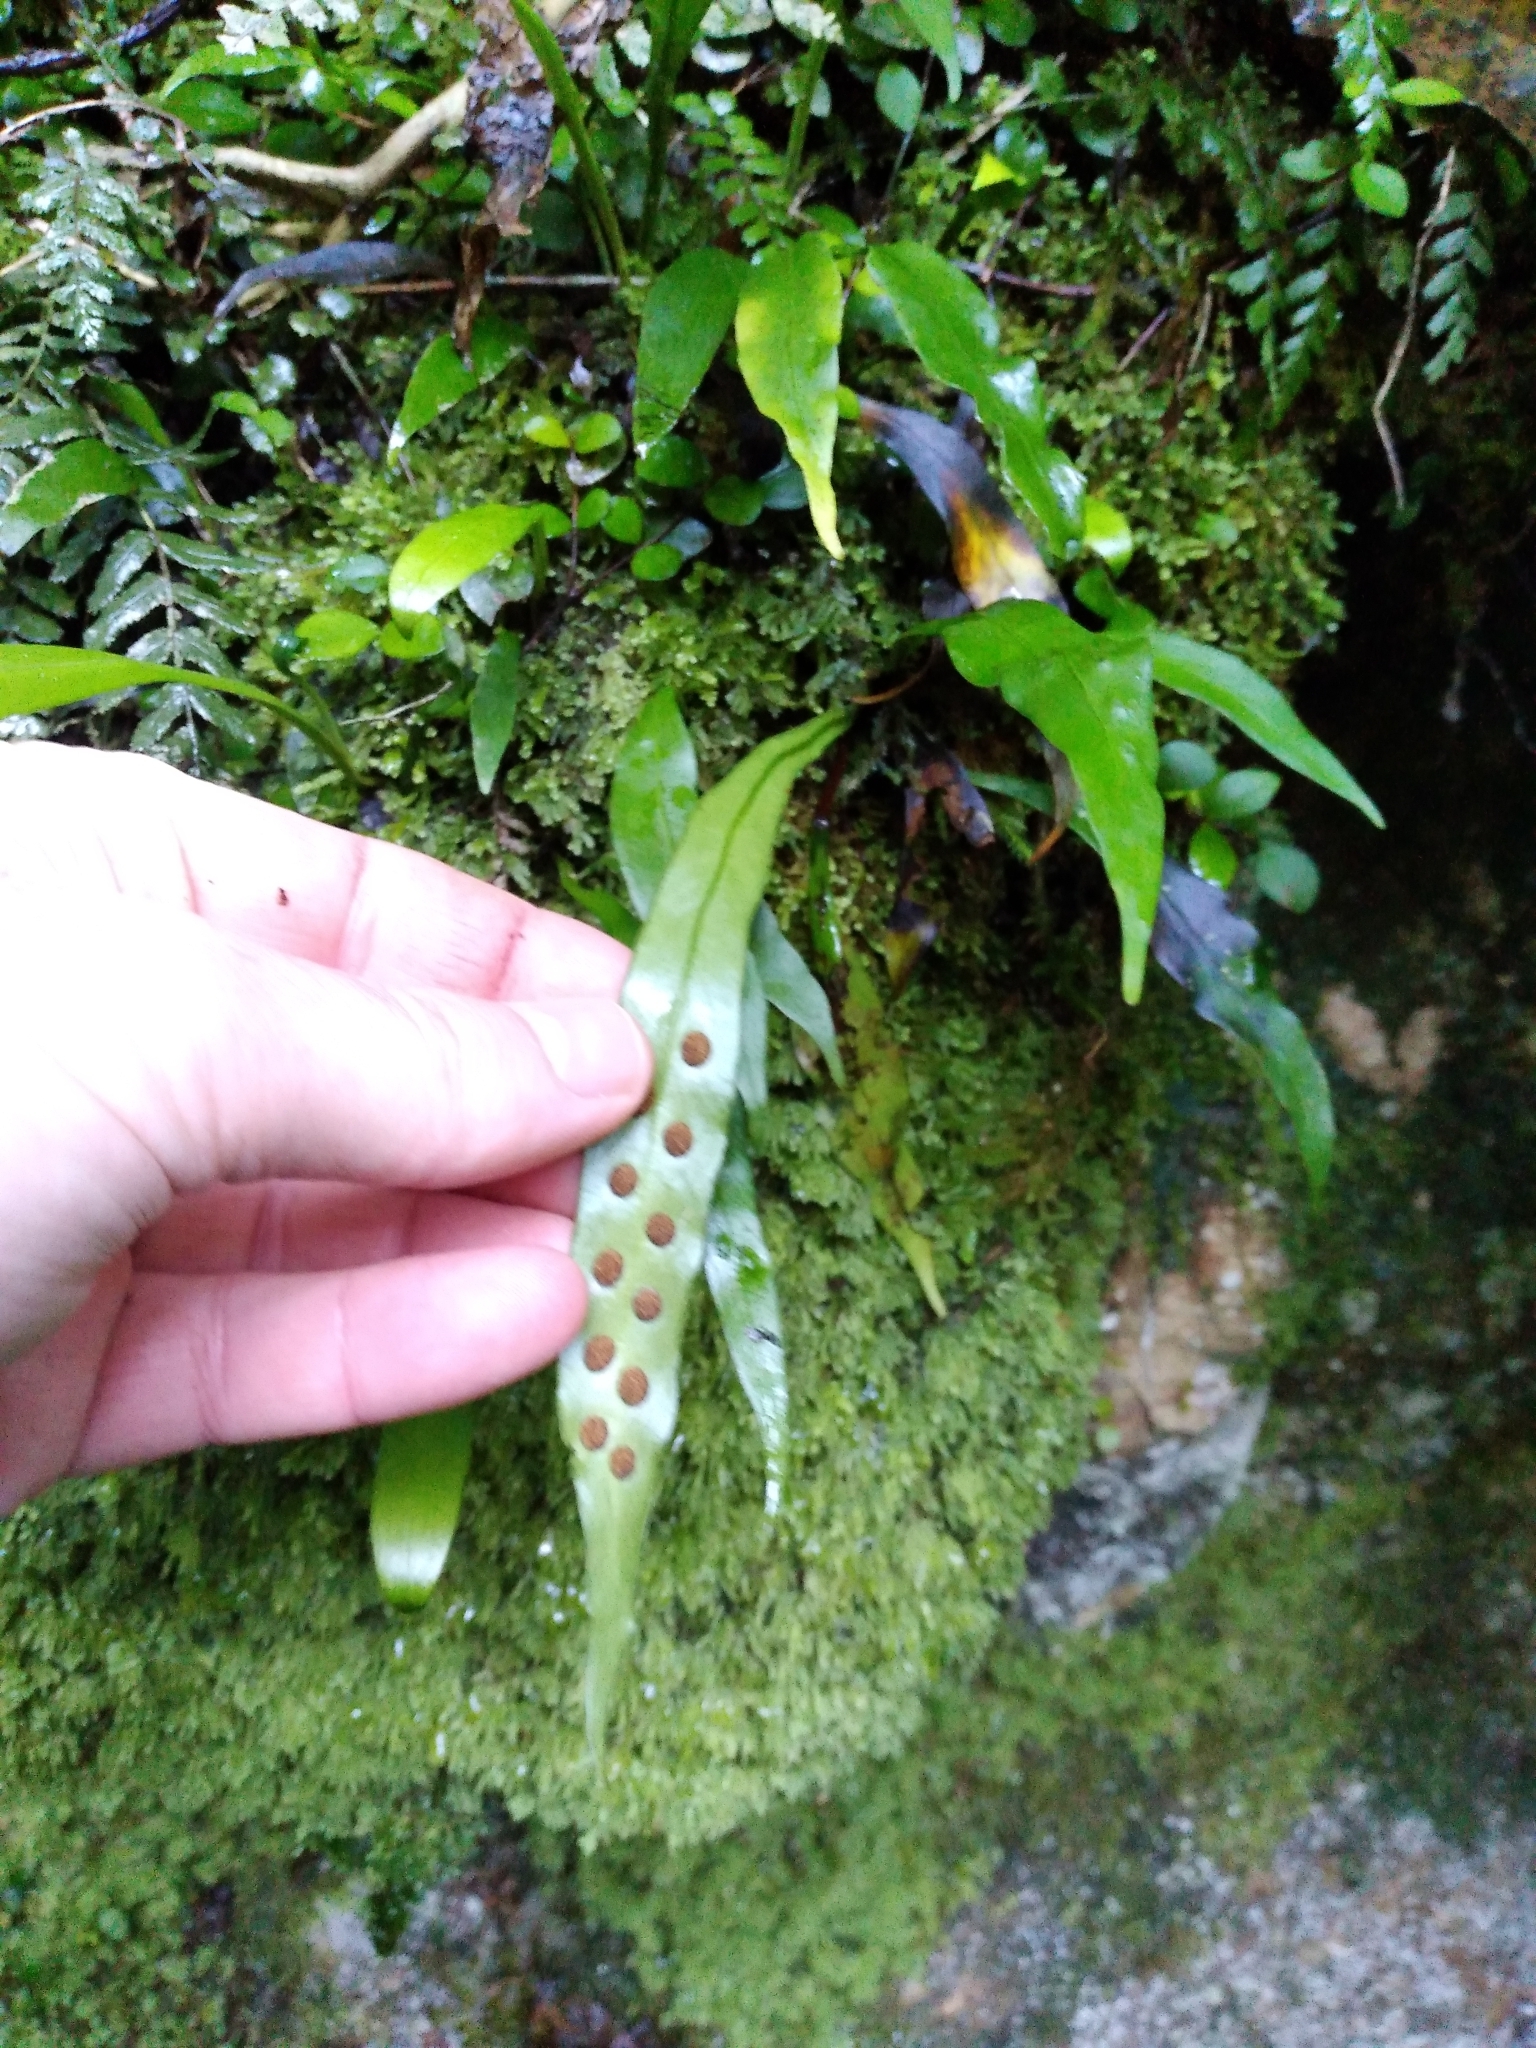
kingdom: Plantae
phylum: Tracheophyta
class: Polypodiopsida
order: Polypodiales
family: Polypodiaceae
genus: Loxogramme
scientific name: Loxogramme dictyopteris
